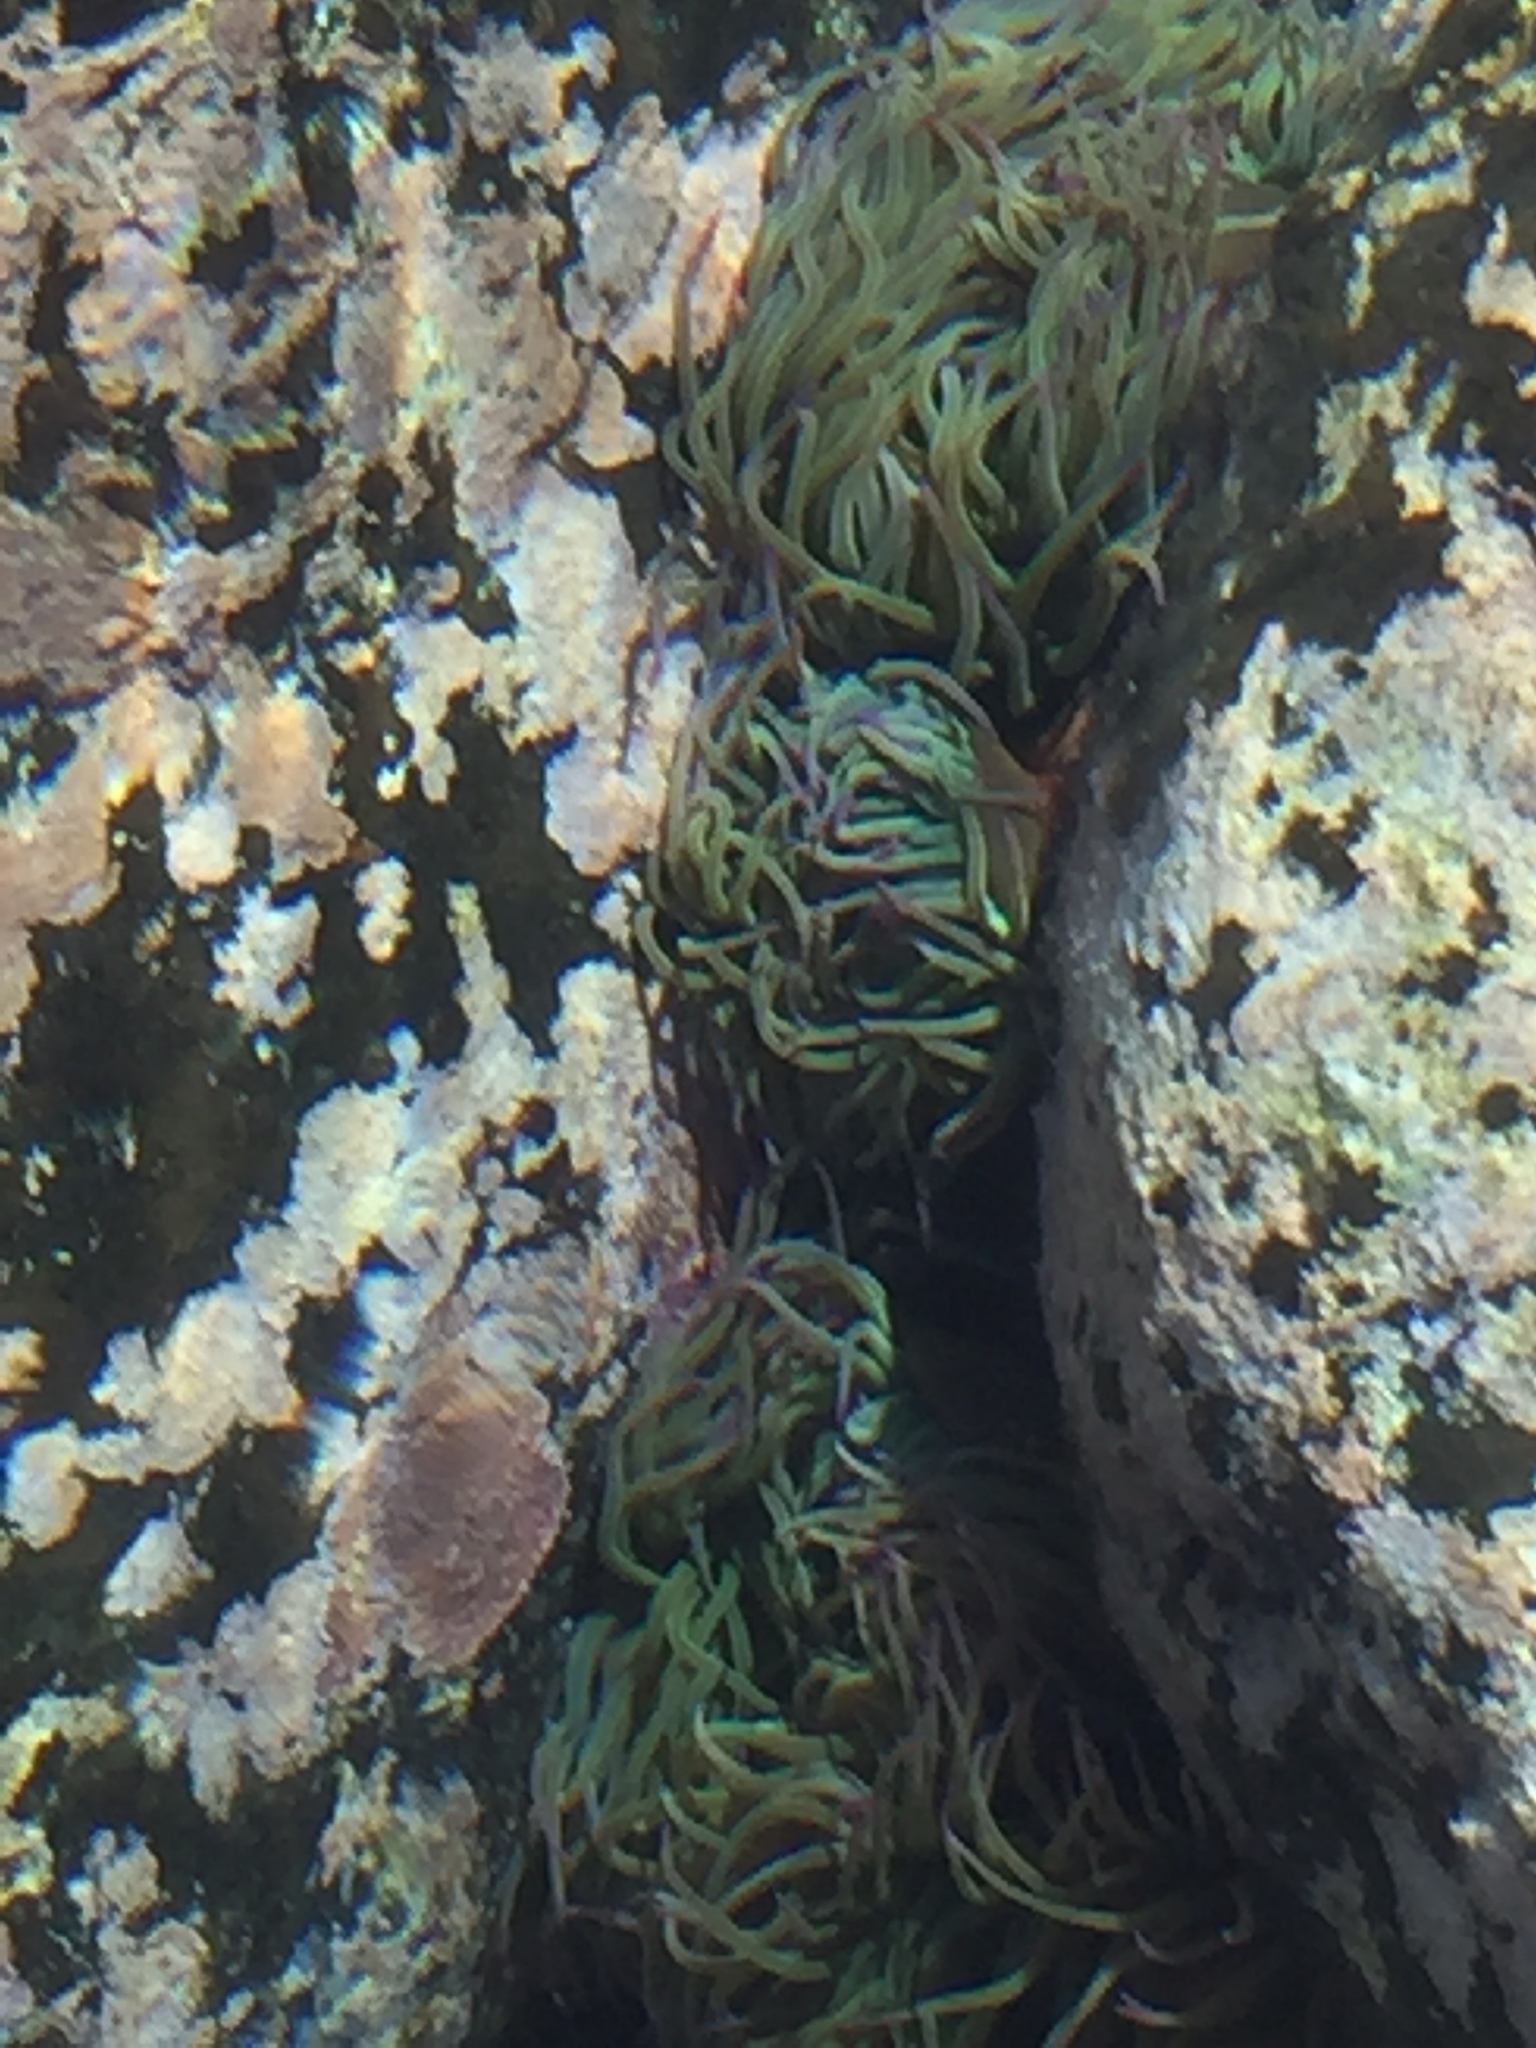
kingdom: Animalia
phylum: Cnidaria
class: Anthozoa
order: Actiniaria
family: Actiniidae
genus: Anemonia
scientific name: Anemonia viridis
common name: Snakelocks anemone
